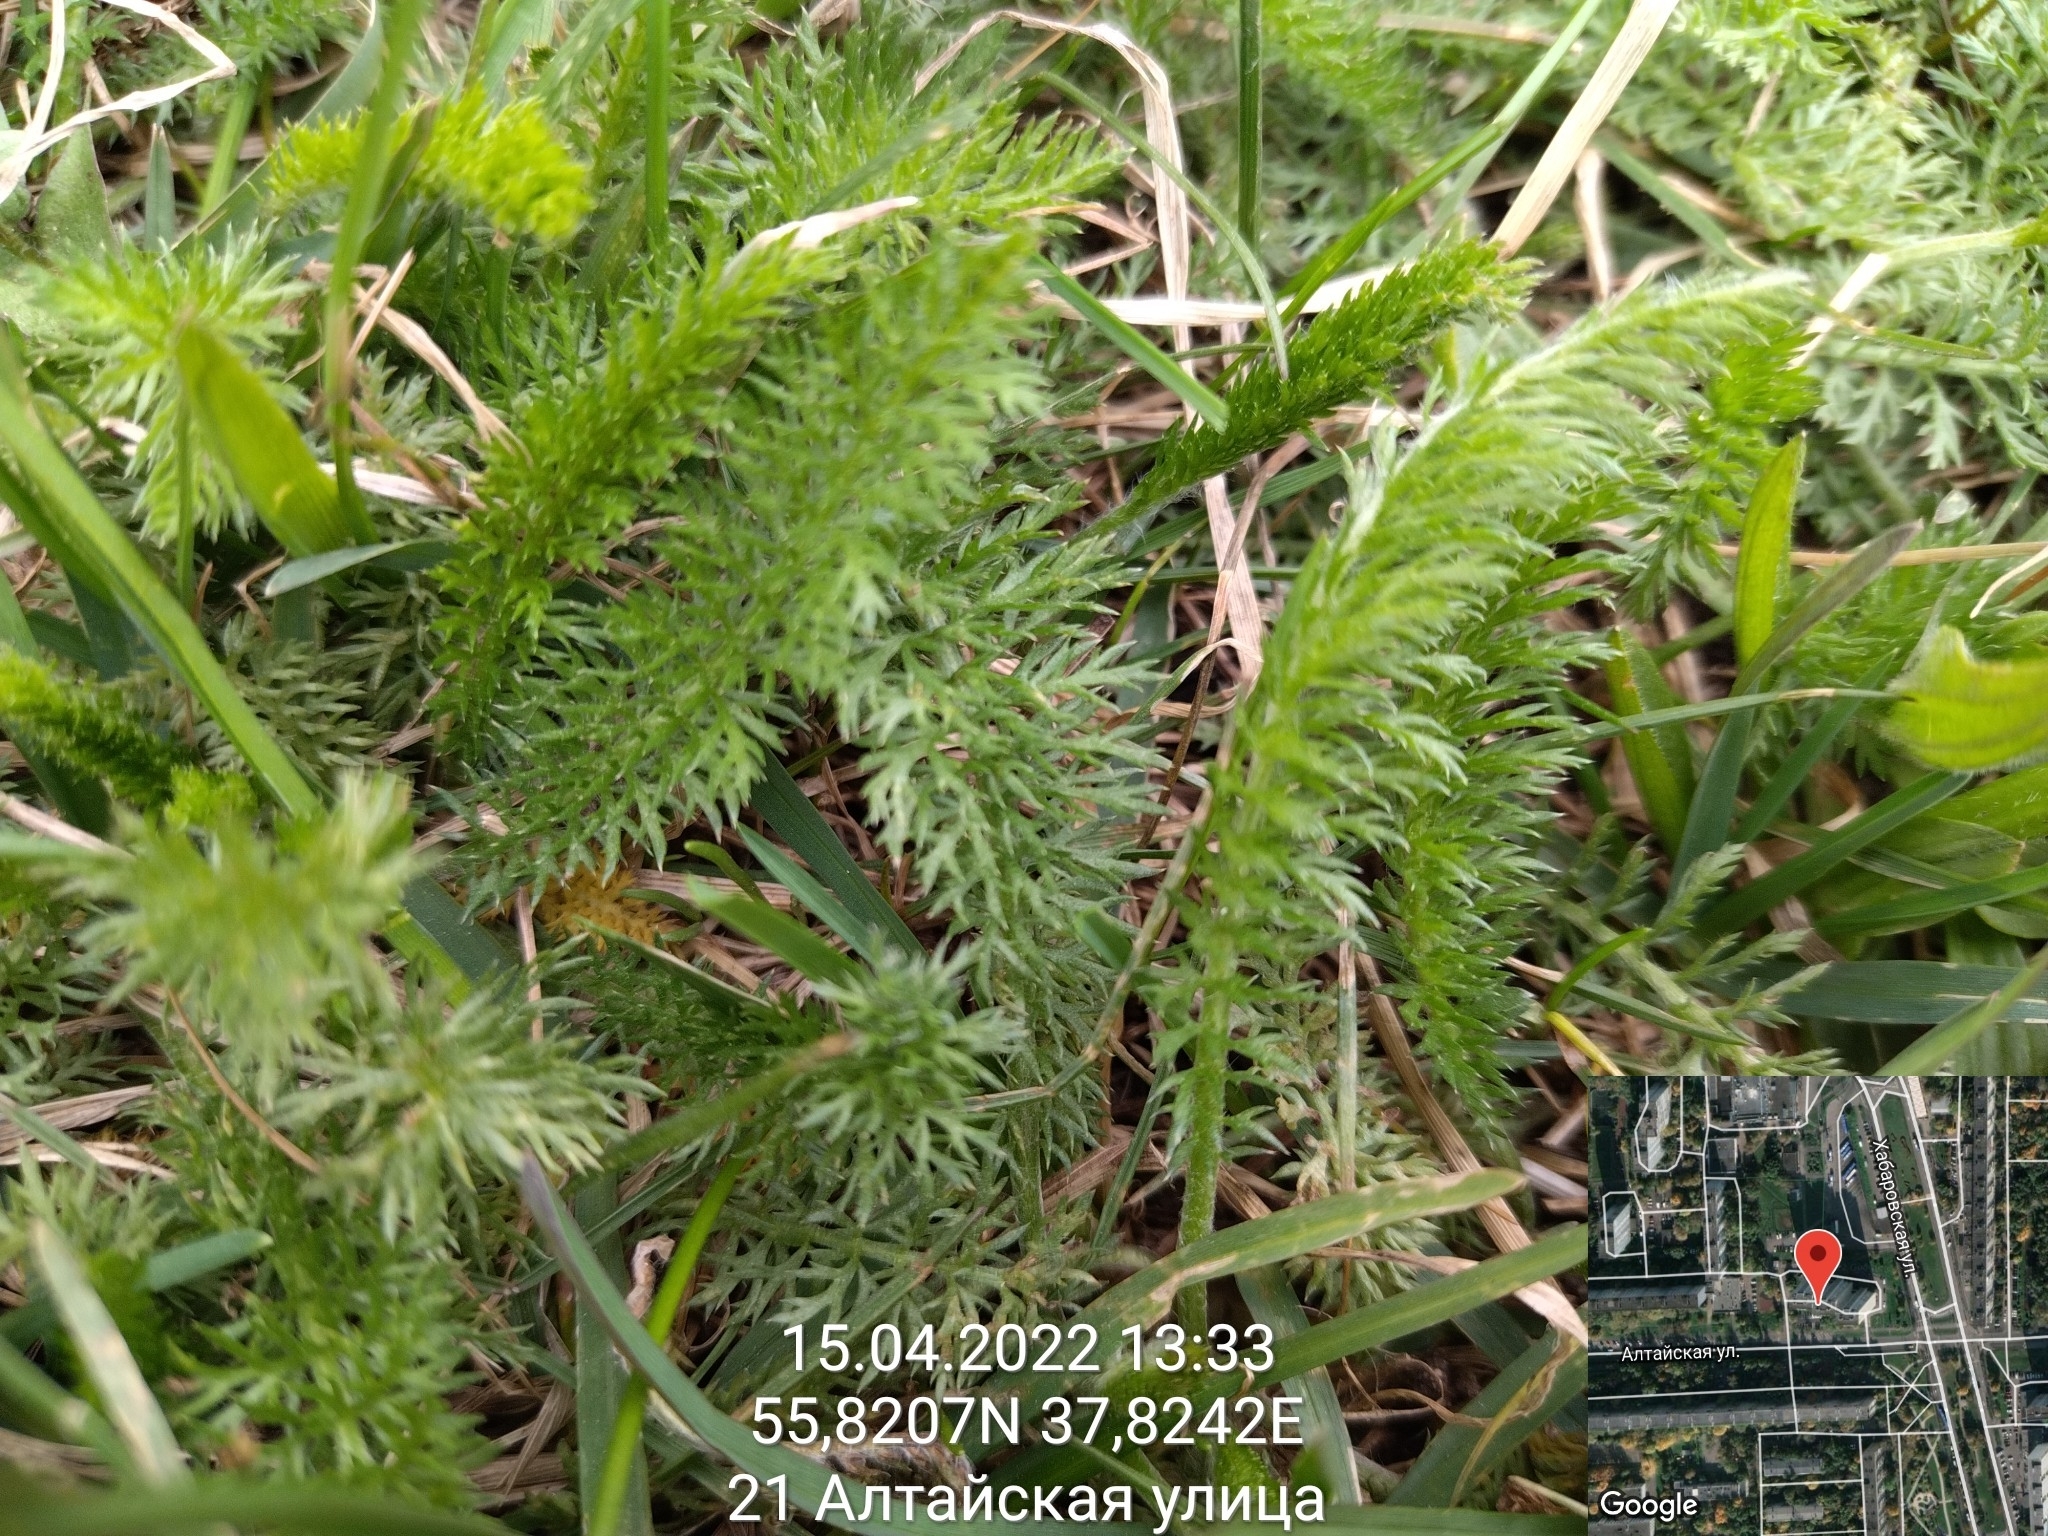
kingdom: Plantae
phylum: Tracheophyta
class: Magnoliopsida
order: Asterales
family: Asteraceae
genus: Achillea
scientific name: Achillea millefolium
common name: Yarrow
